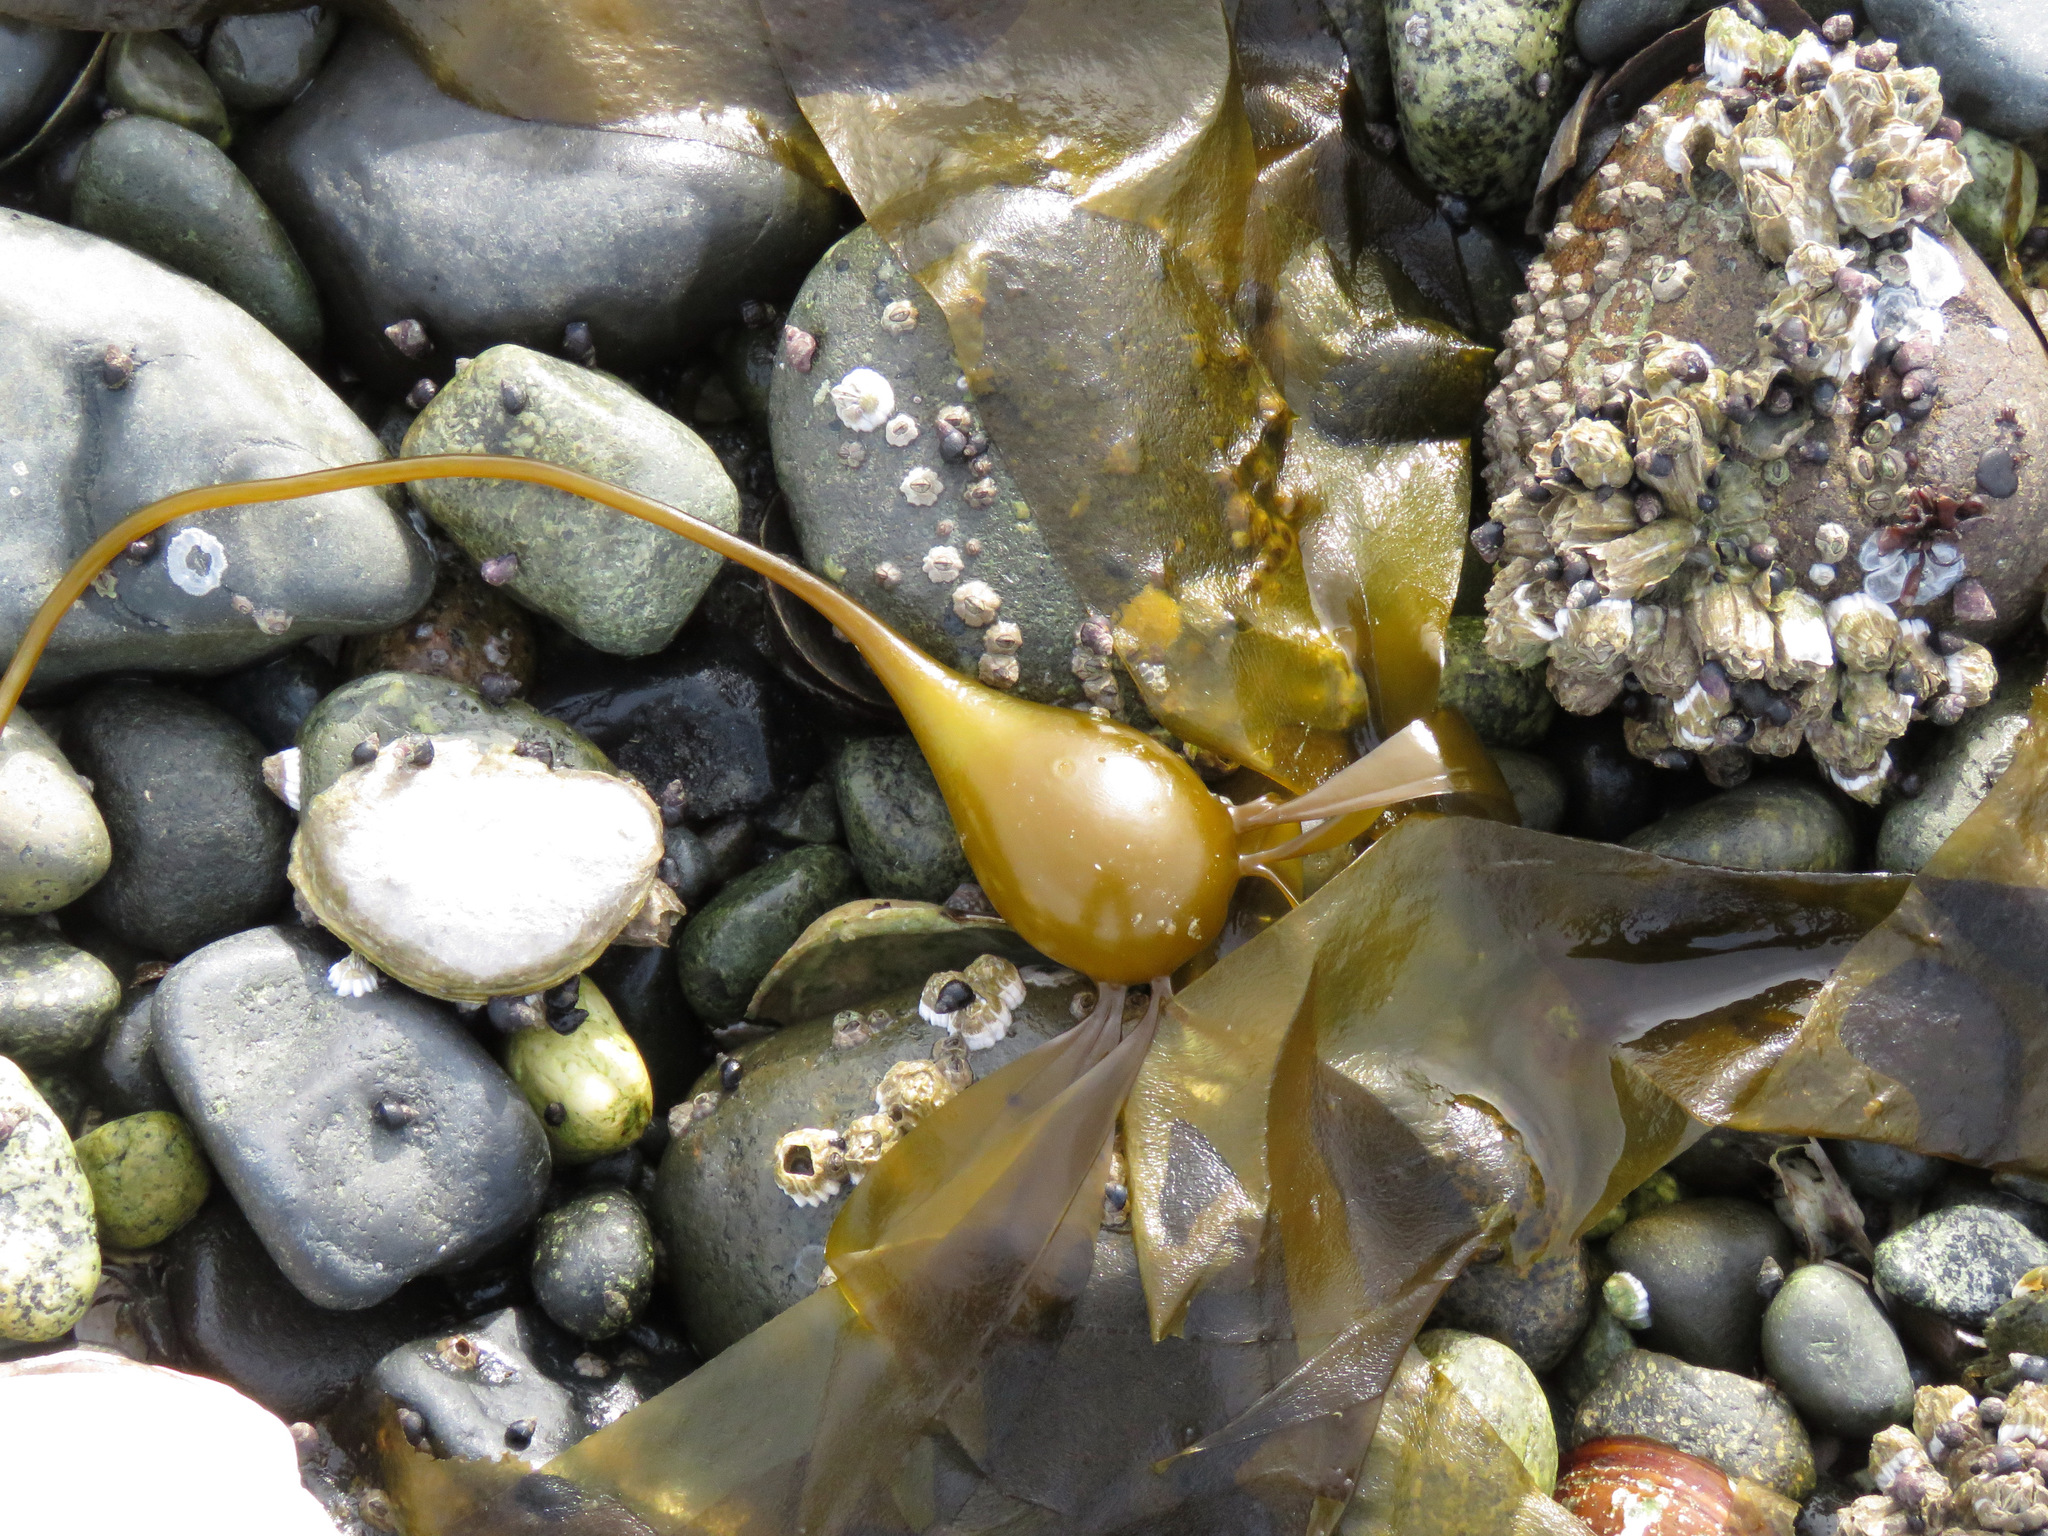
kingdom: Chromista
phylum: Ochrophyta
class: Phaeophyceae
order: Laminariales
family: Laminariaceae
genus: Nereocystis
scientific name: Nereocystis luetkeana
